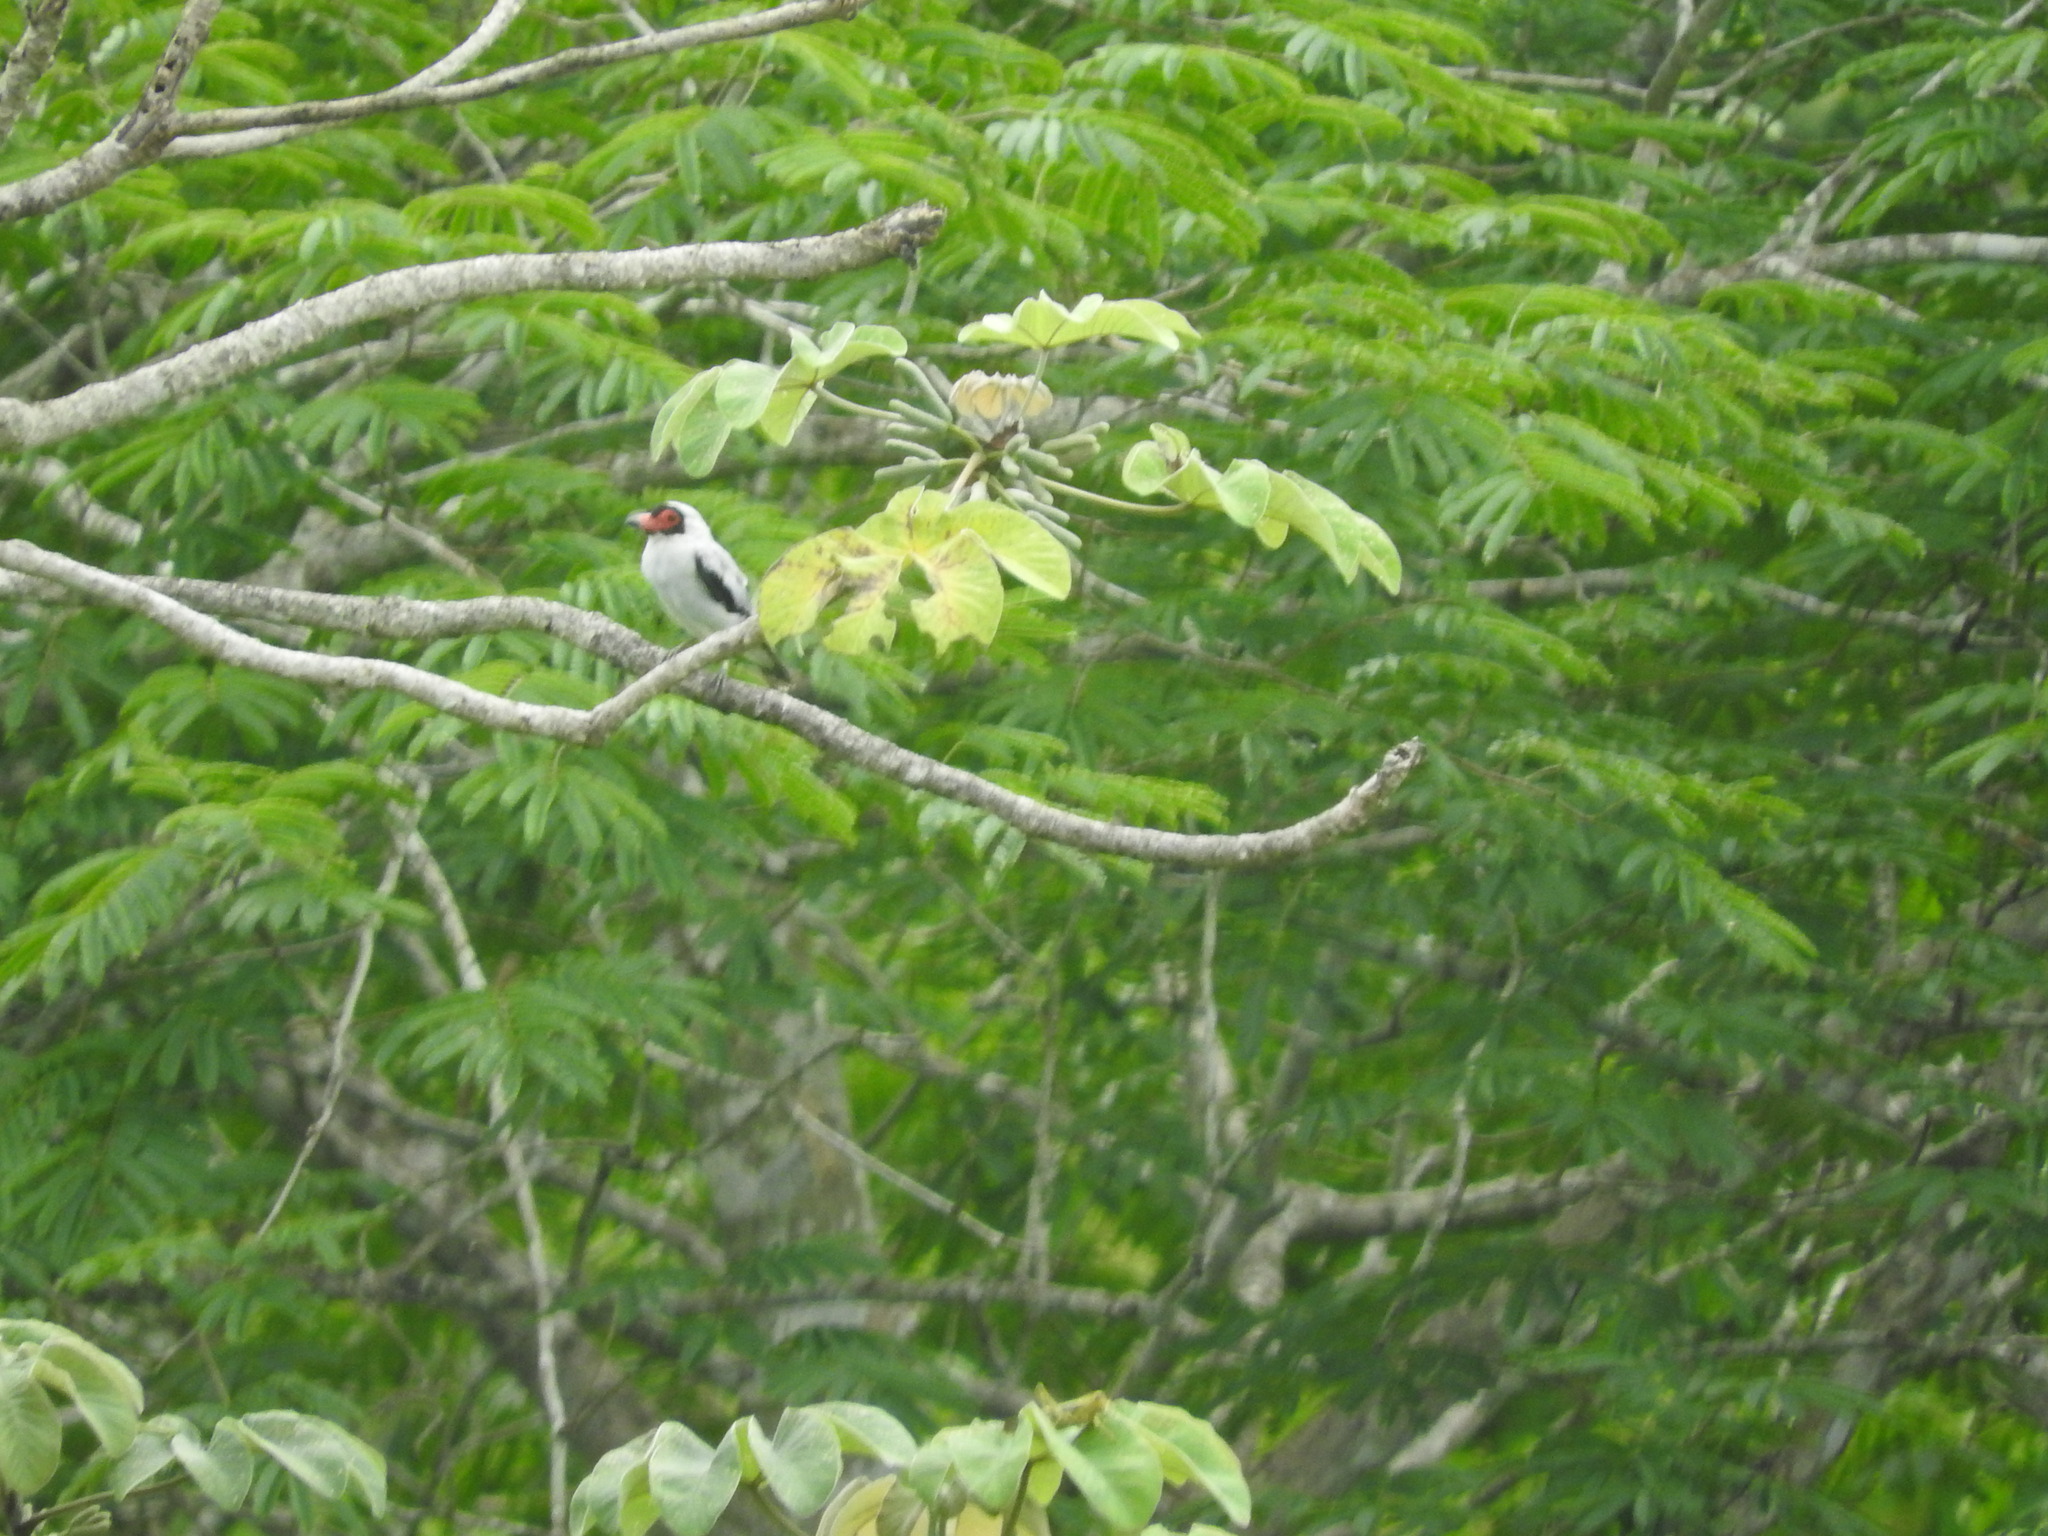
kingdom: Animalia
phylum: Chordata
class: Aves
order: Passeriformes
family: Cotingidae
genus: Tityra
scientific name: Tityra semifasciata
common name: Masked tityra
